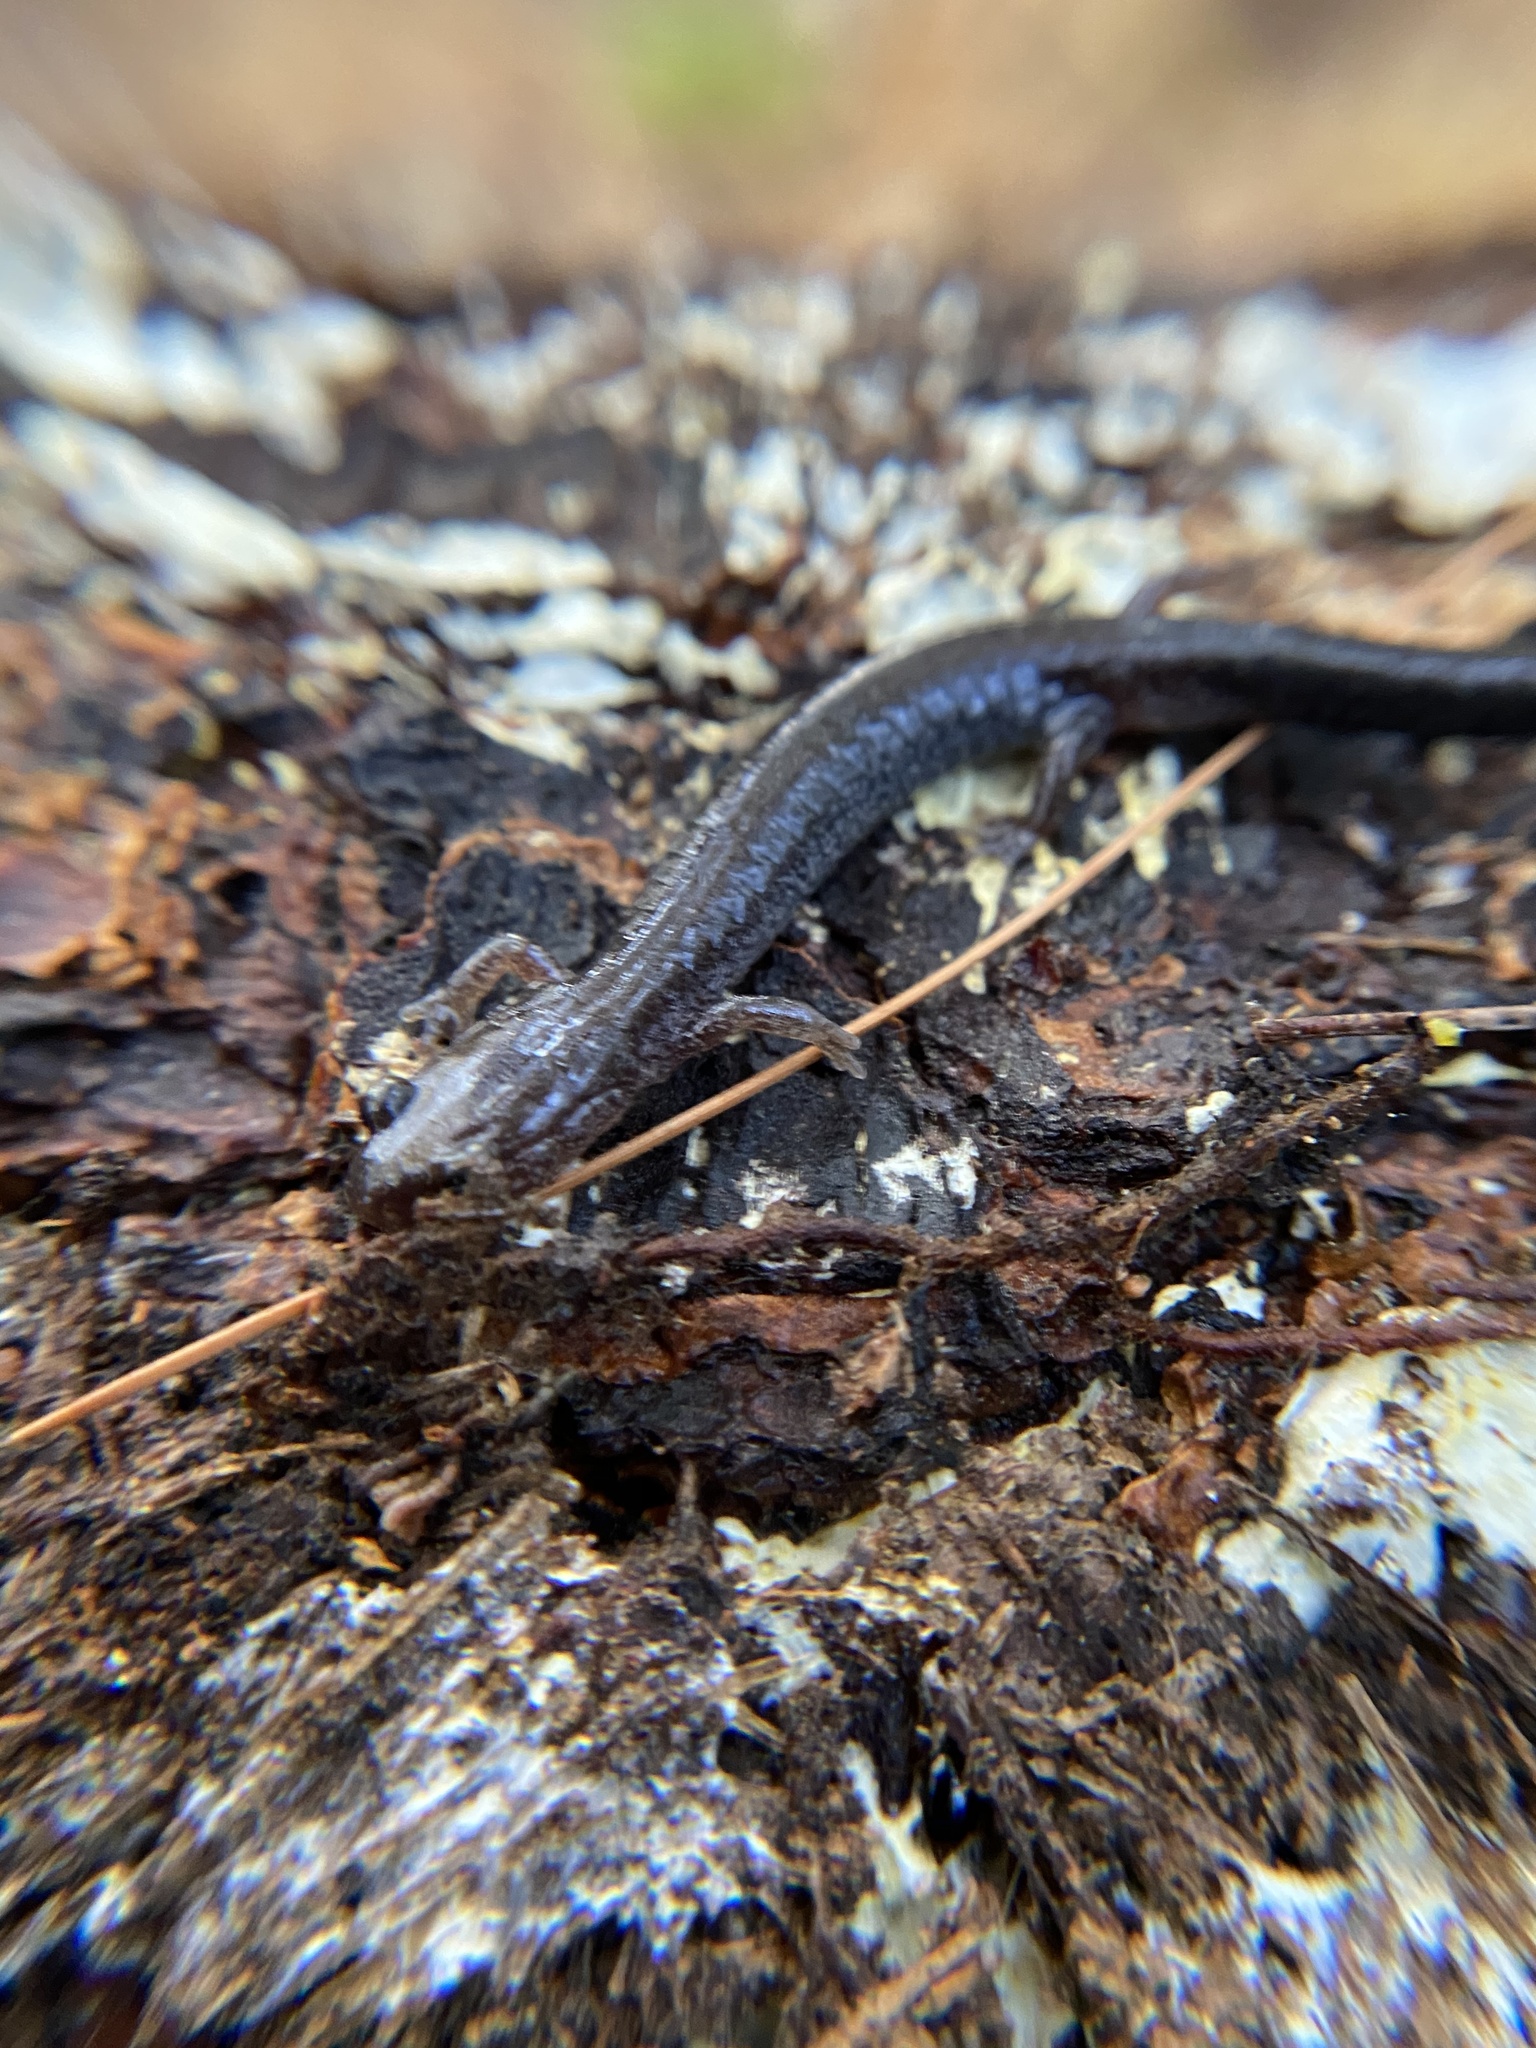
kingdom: Animalia
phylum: Chordata
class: Amphibia
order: Caudata
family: Plethodontidae
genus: Plethodon
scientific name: Plethodon cinereus
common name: Redback salamander
